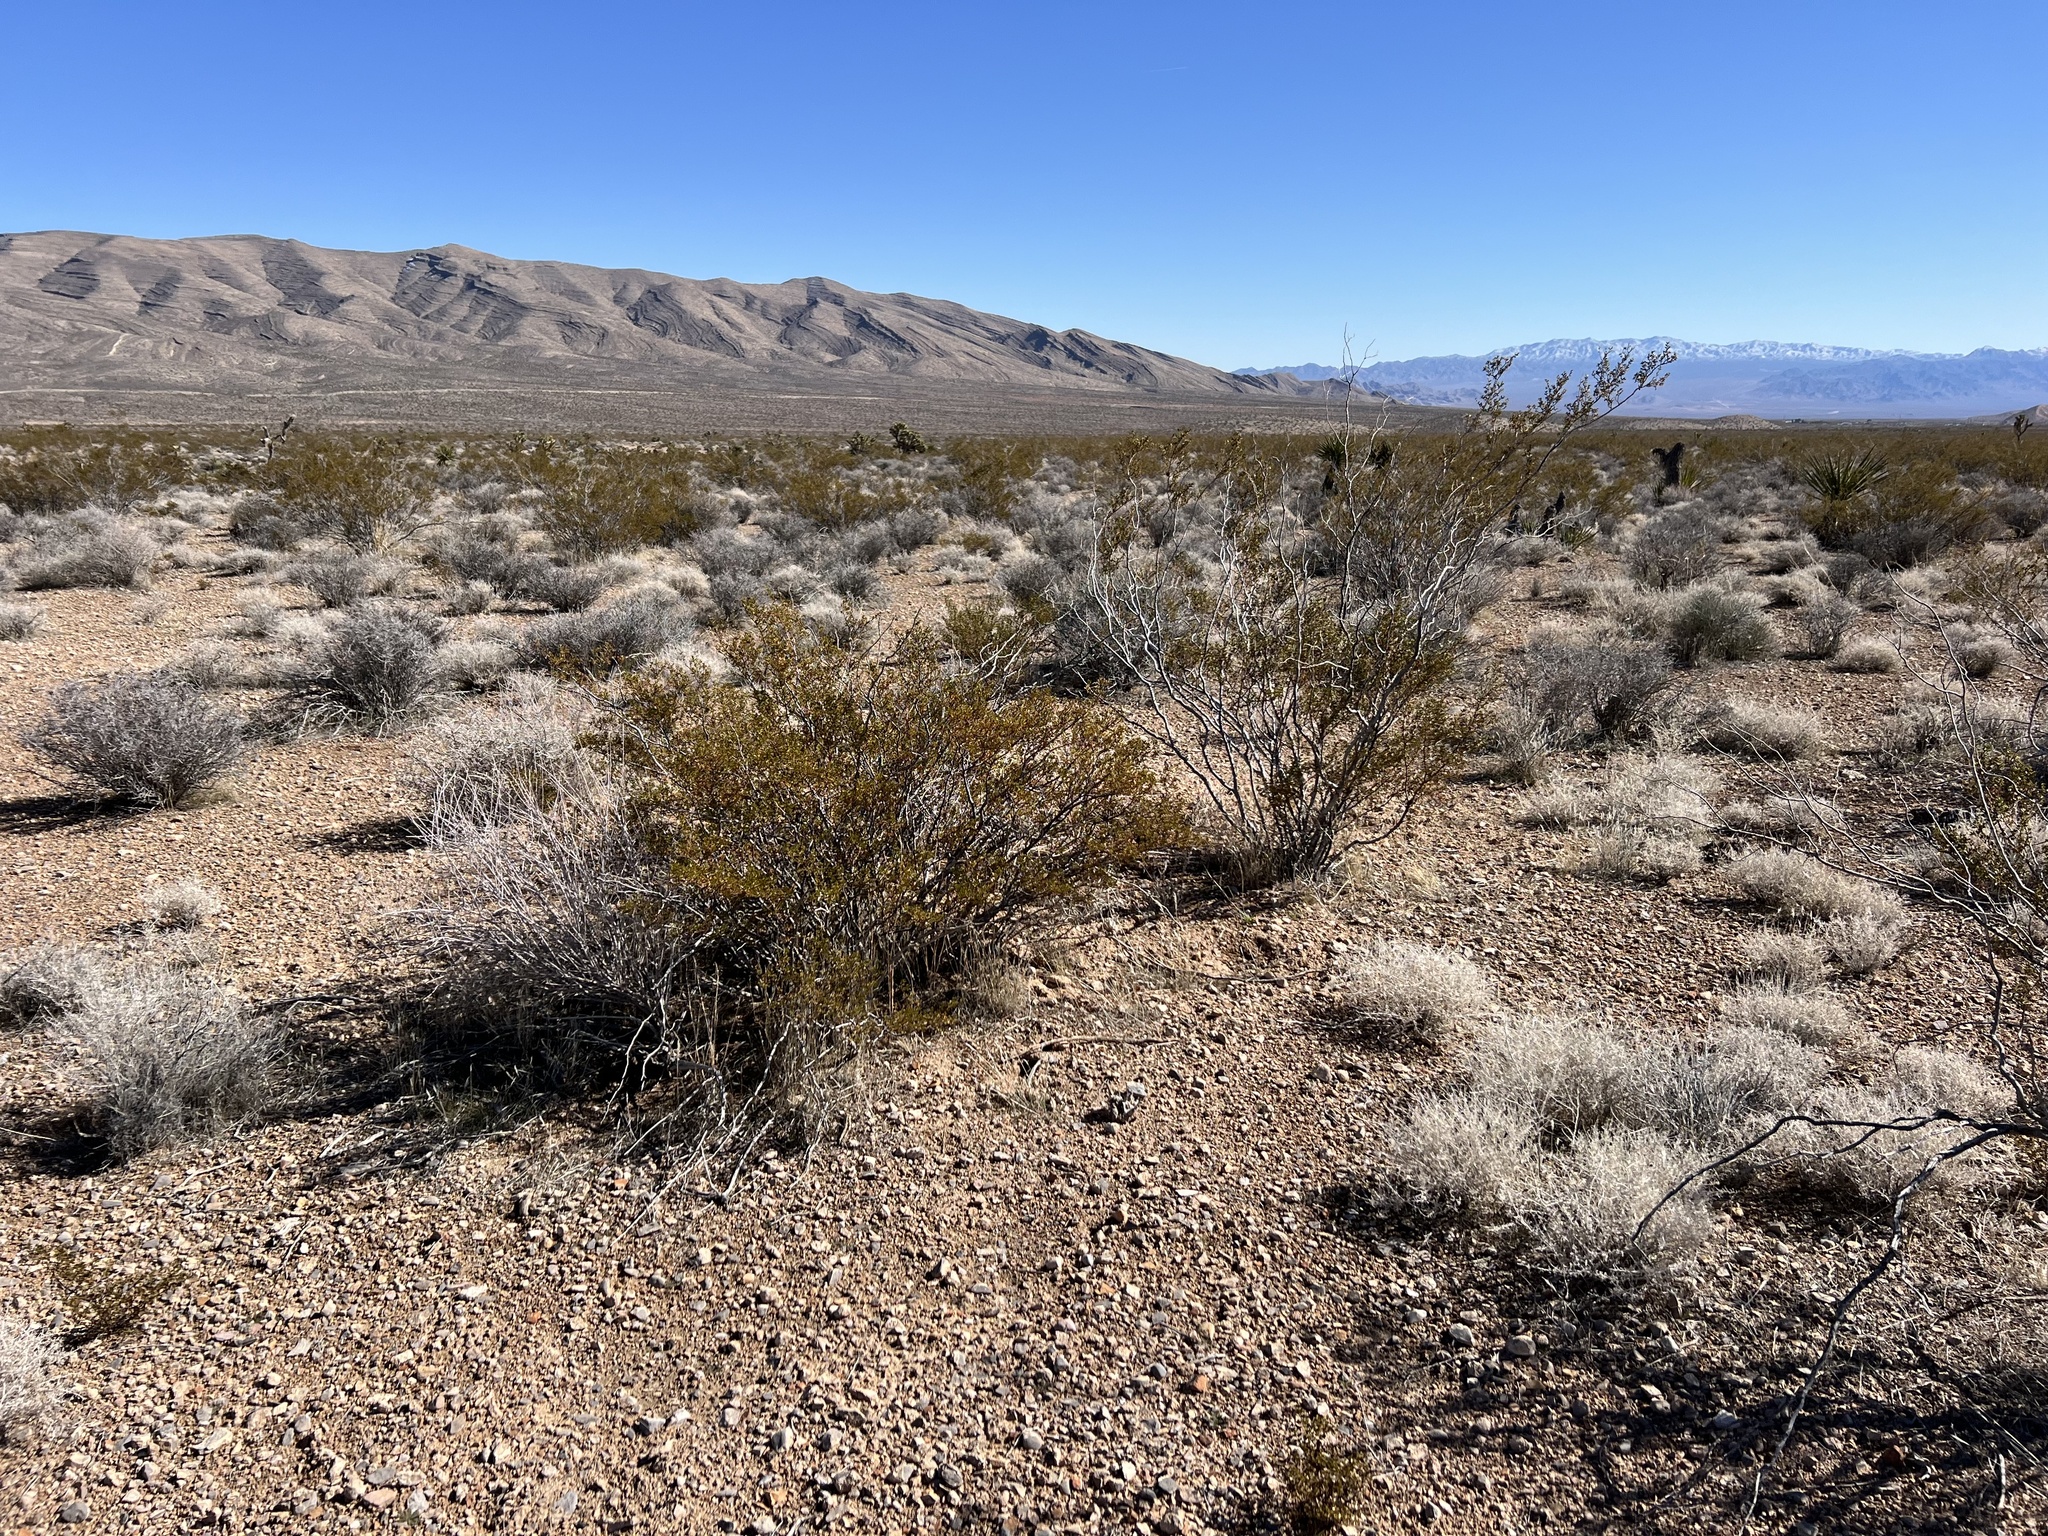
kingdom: Plantae
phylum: Tracheophyta
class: Magnoliopsida
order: Zygophyllales
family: Zygophyllaceae
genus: Larrea
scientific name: Larrea tridentata
